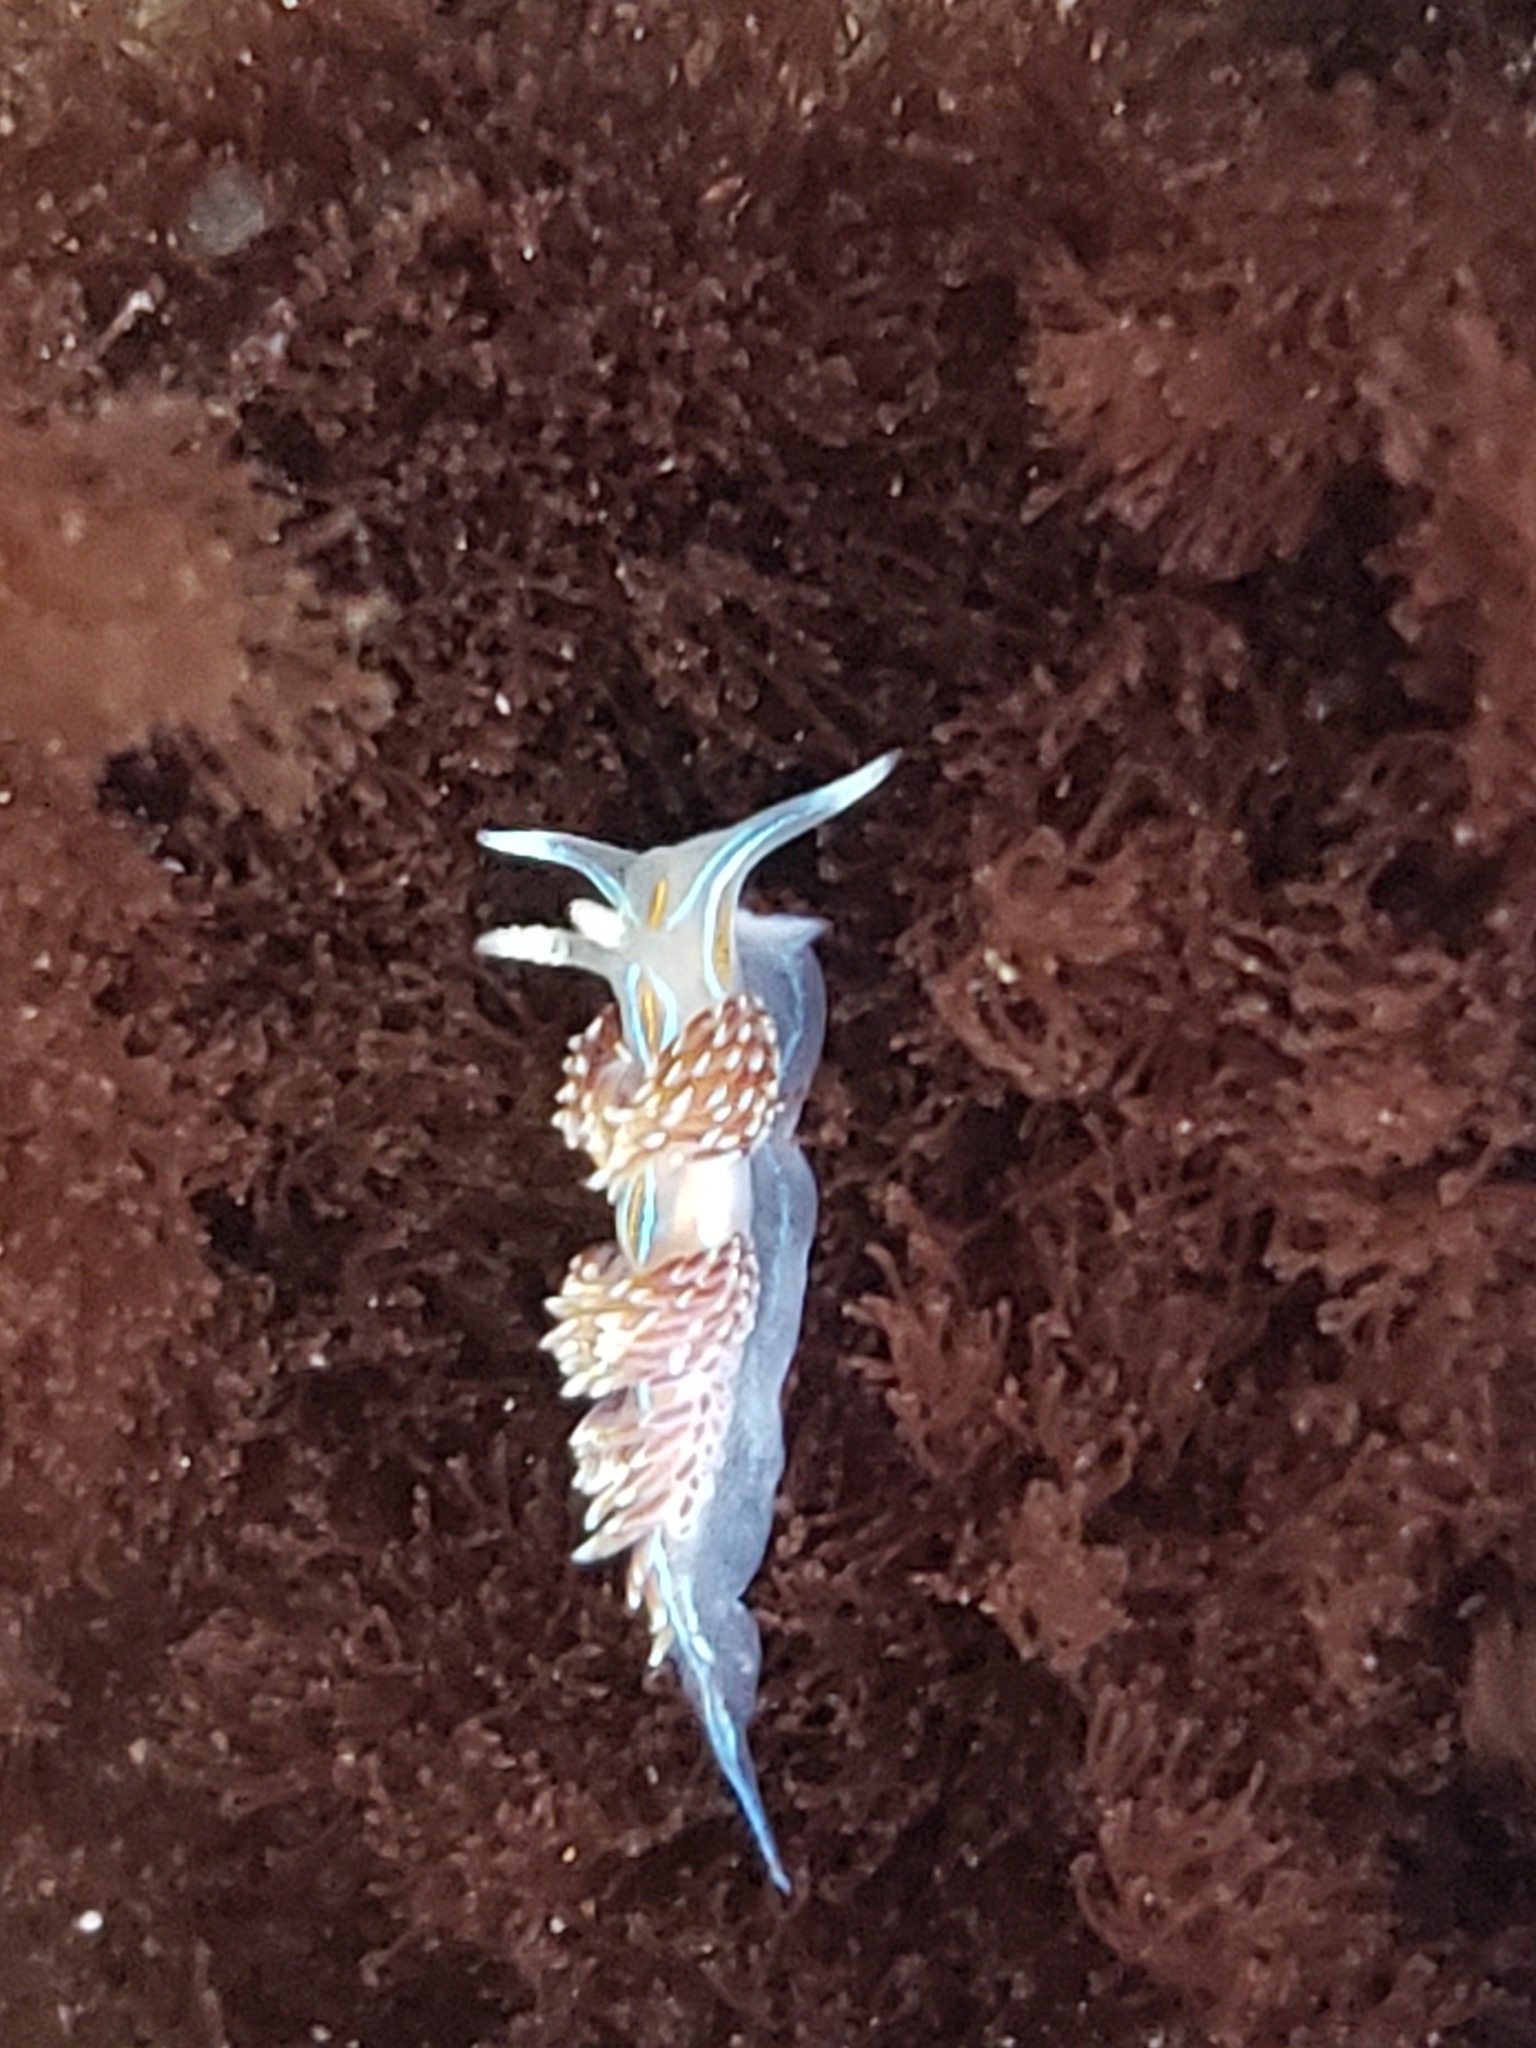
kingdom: Animalia
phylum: Mollusca
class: Gastropoda
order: Nudibranchia
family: Myrrhinidae
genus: Hermissenda
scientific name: Hermissenda opalescens
